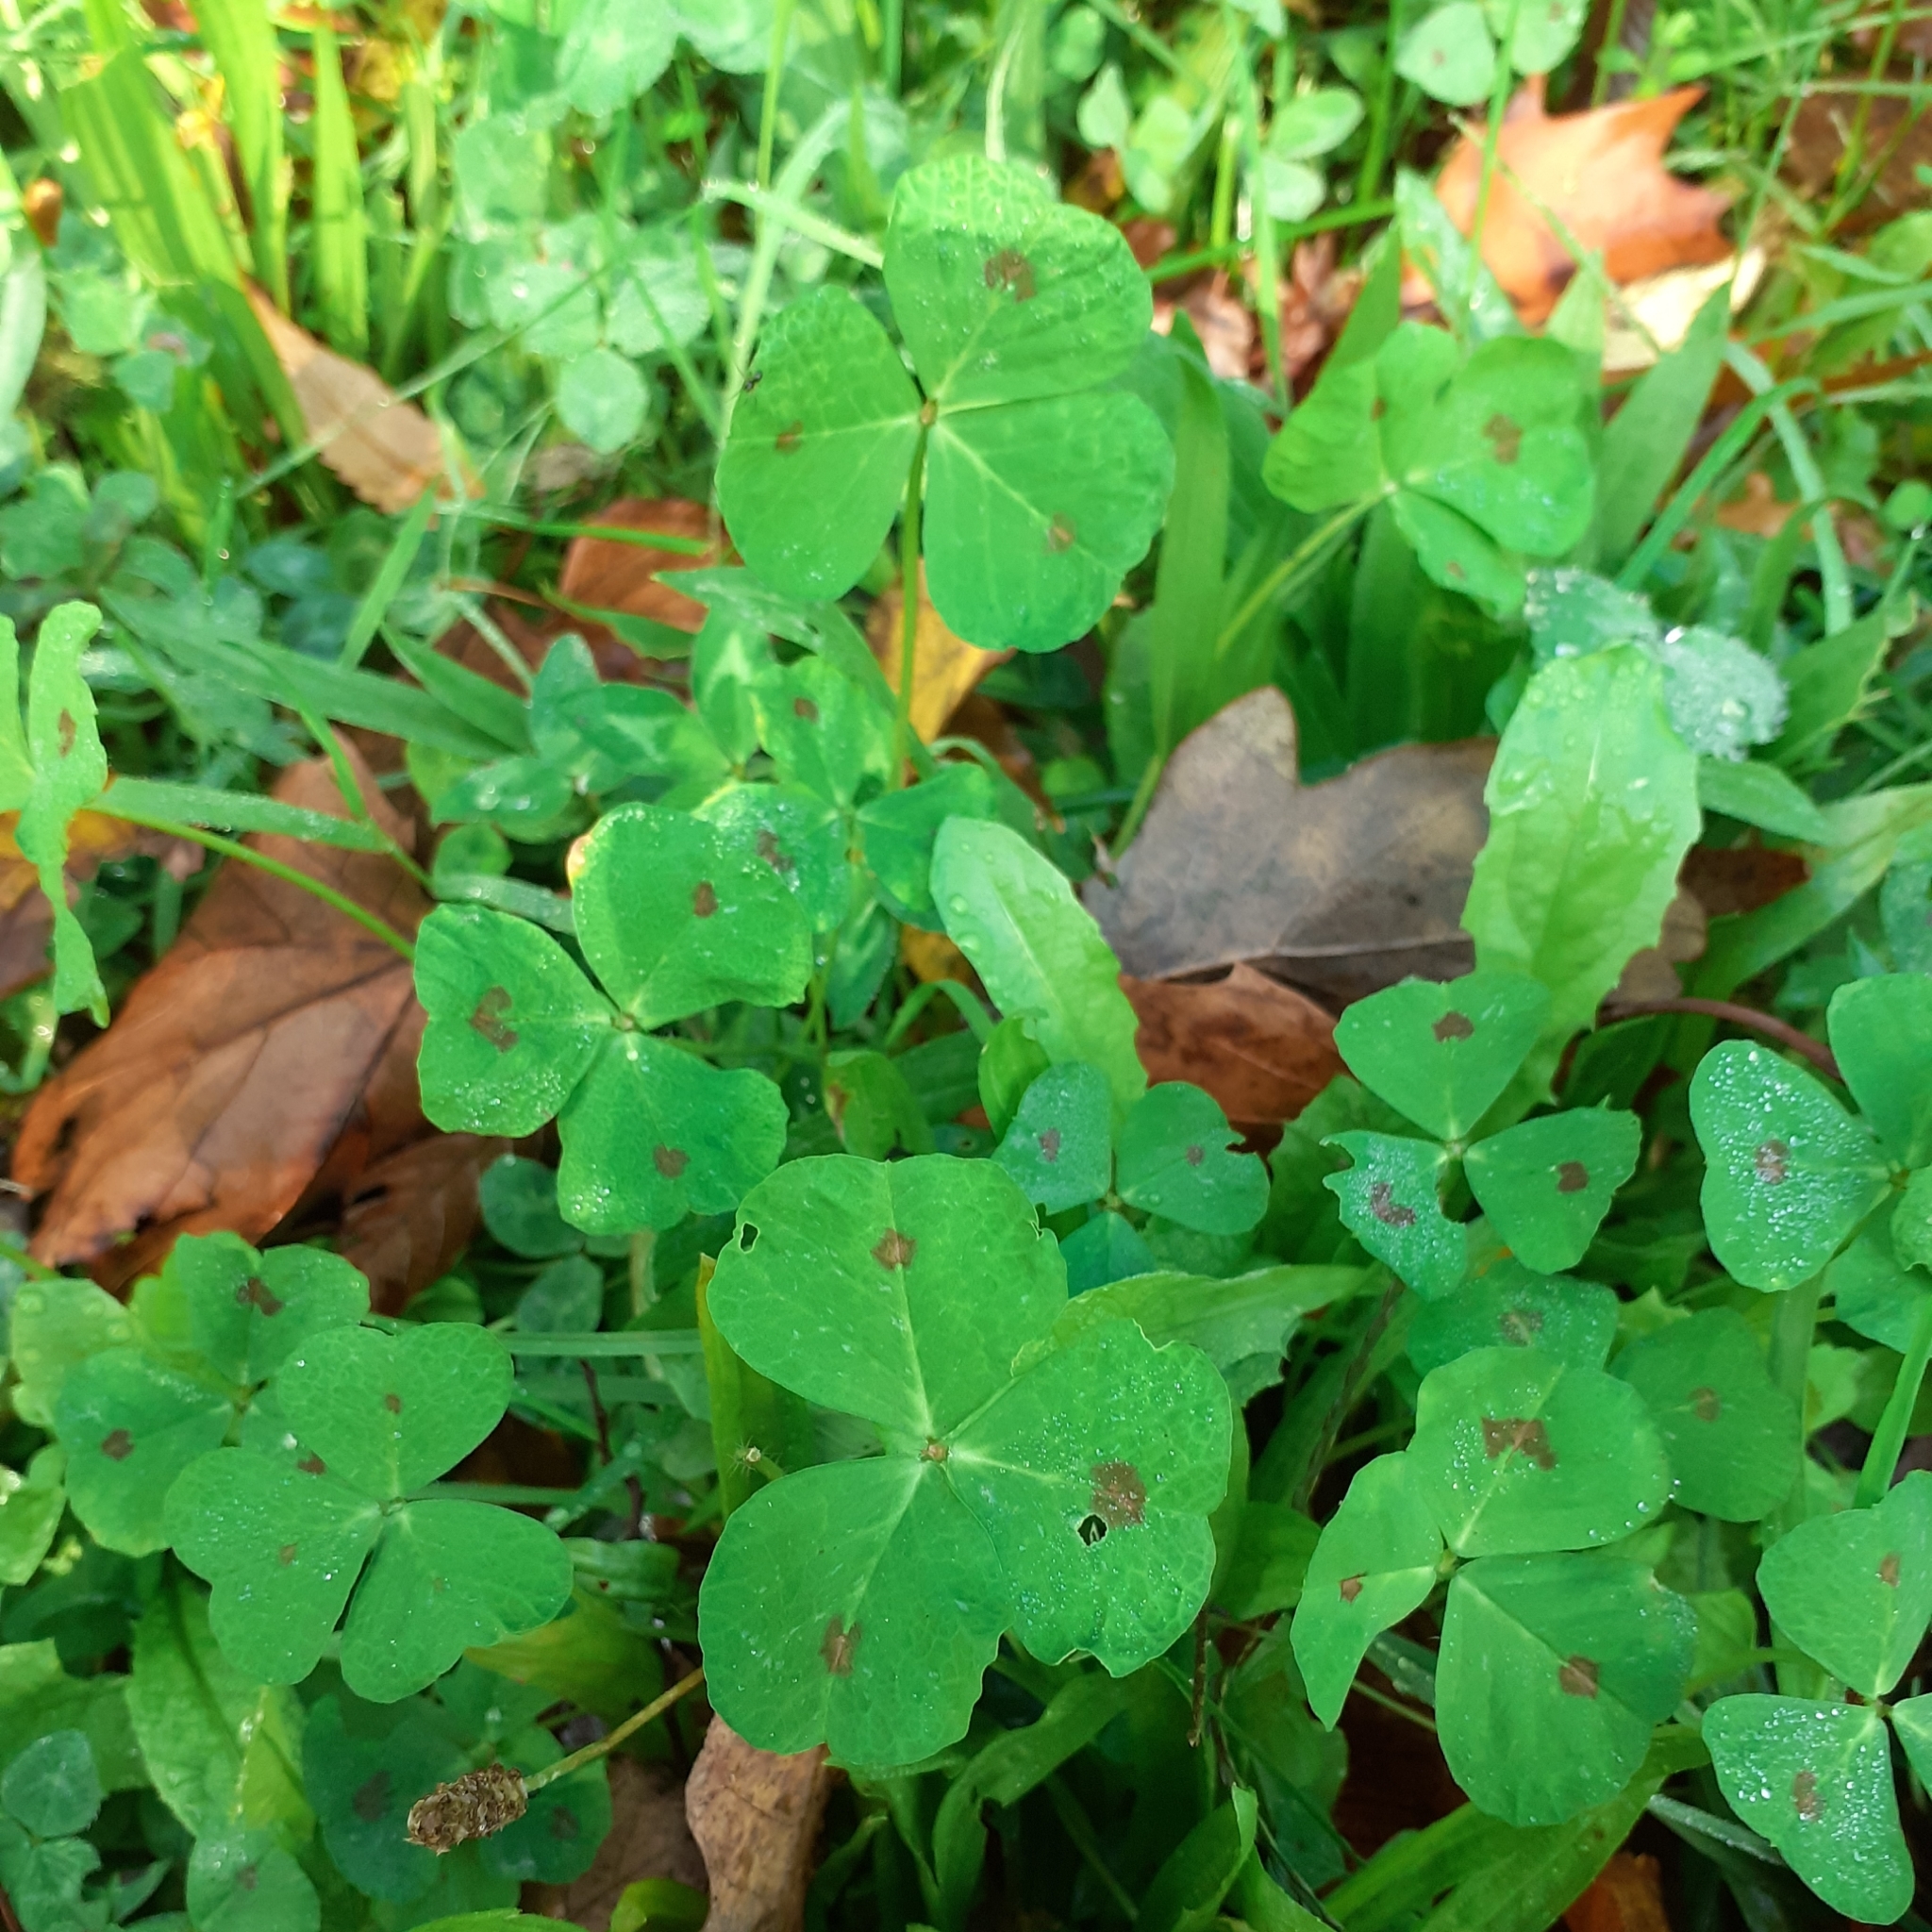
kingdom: Plantae
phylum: Tracheophyta
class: Magnoliopsida
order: Fabales
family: Fabaceae
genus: Medicago
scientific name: Medicago arabica
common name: Spotted medick
